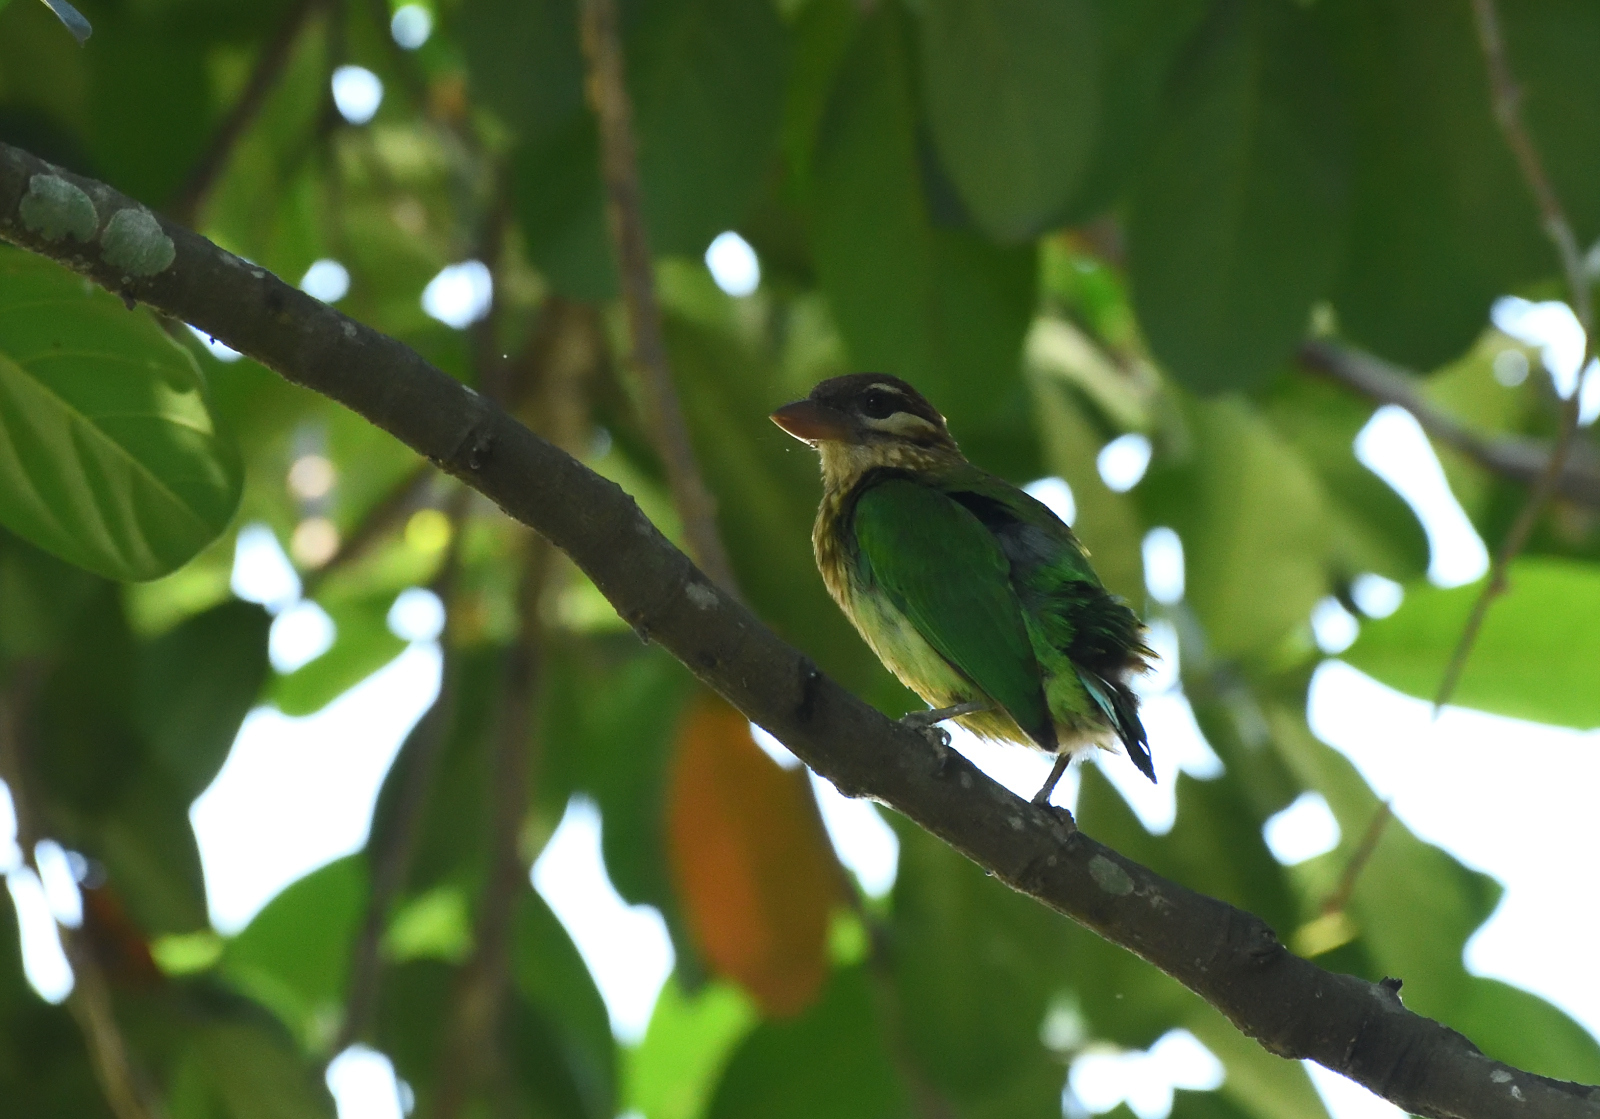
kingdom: Animalia
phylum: Chordata
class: Aves
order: Piciformes
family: Megalaimidae
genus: Psilopogon
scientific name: Psilopogon viridis
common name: White-cheeked barbet
